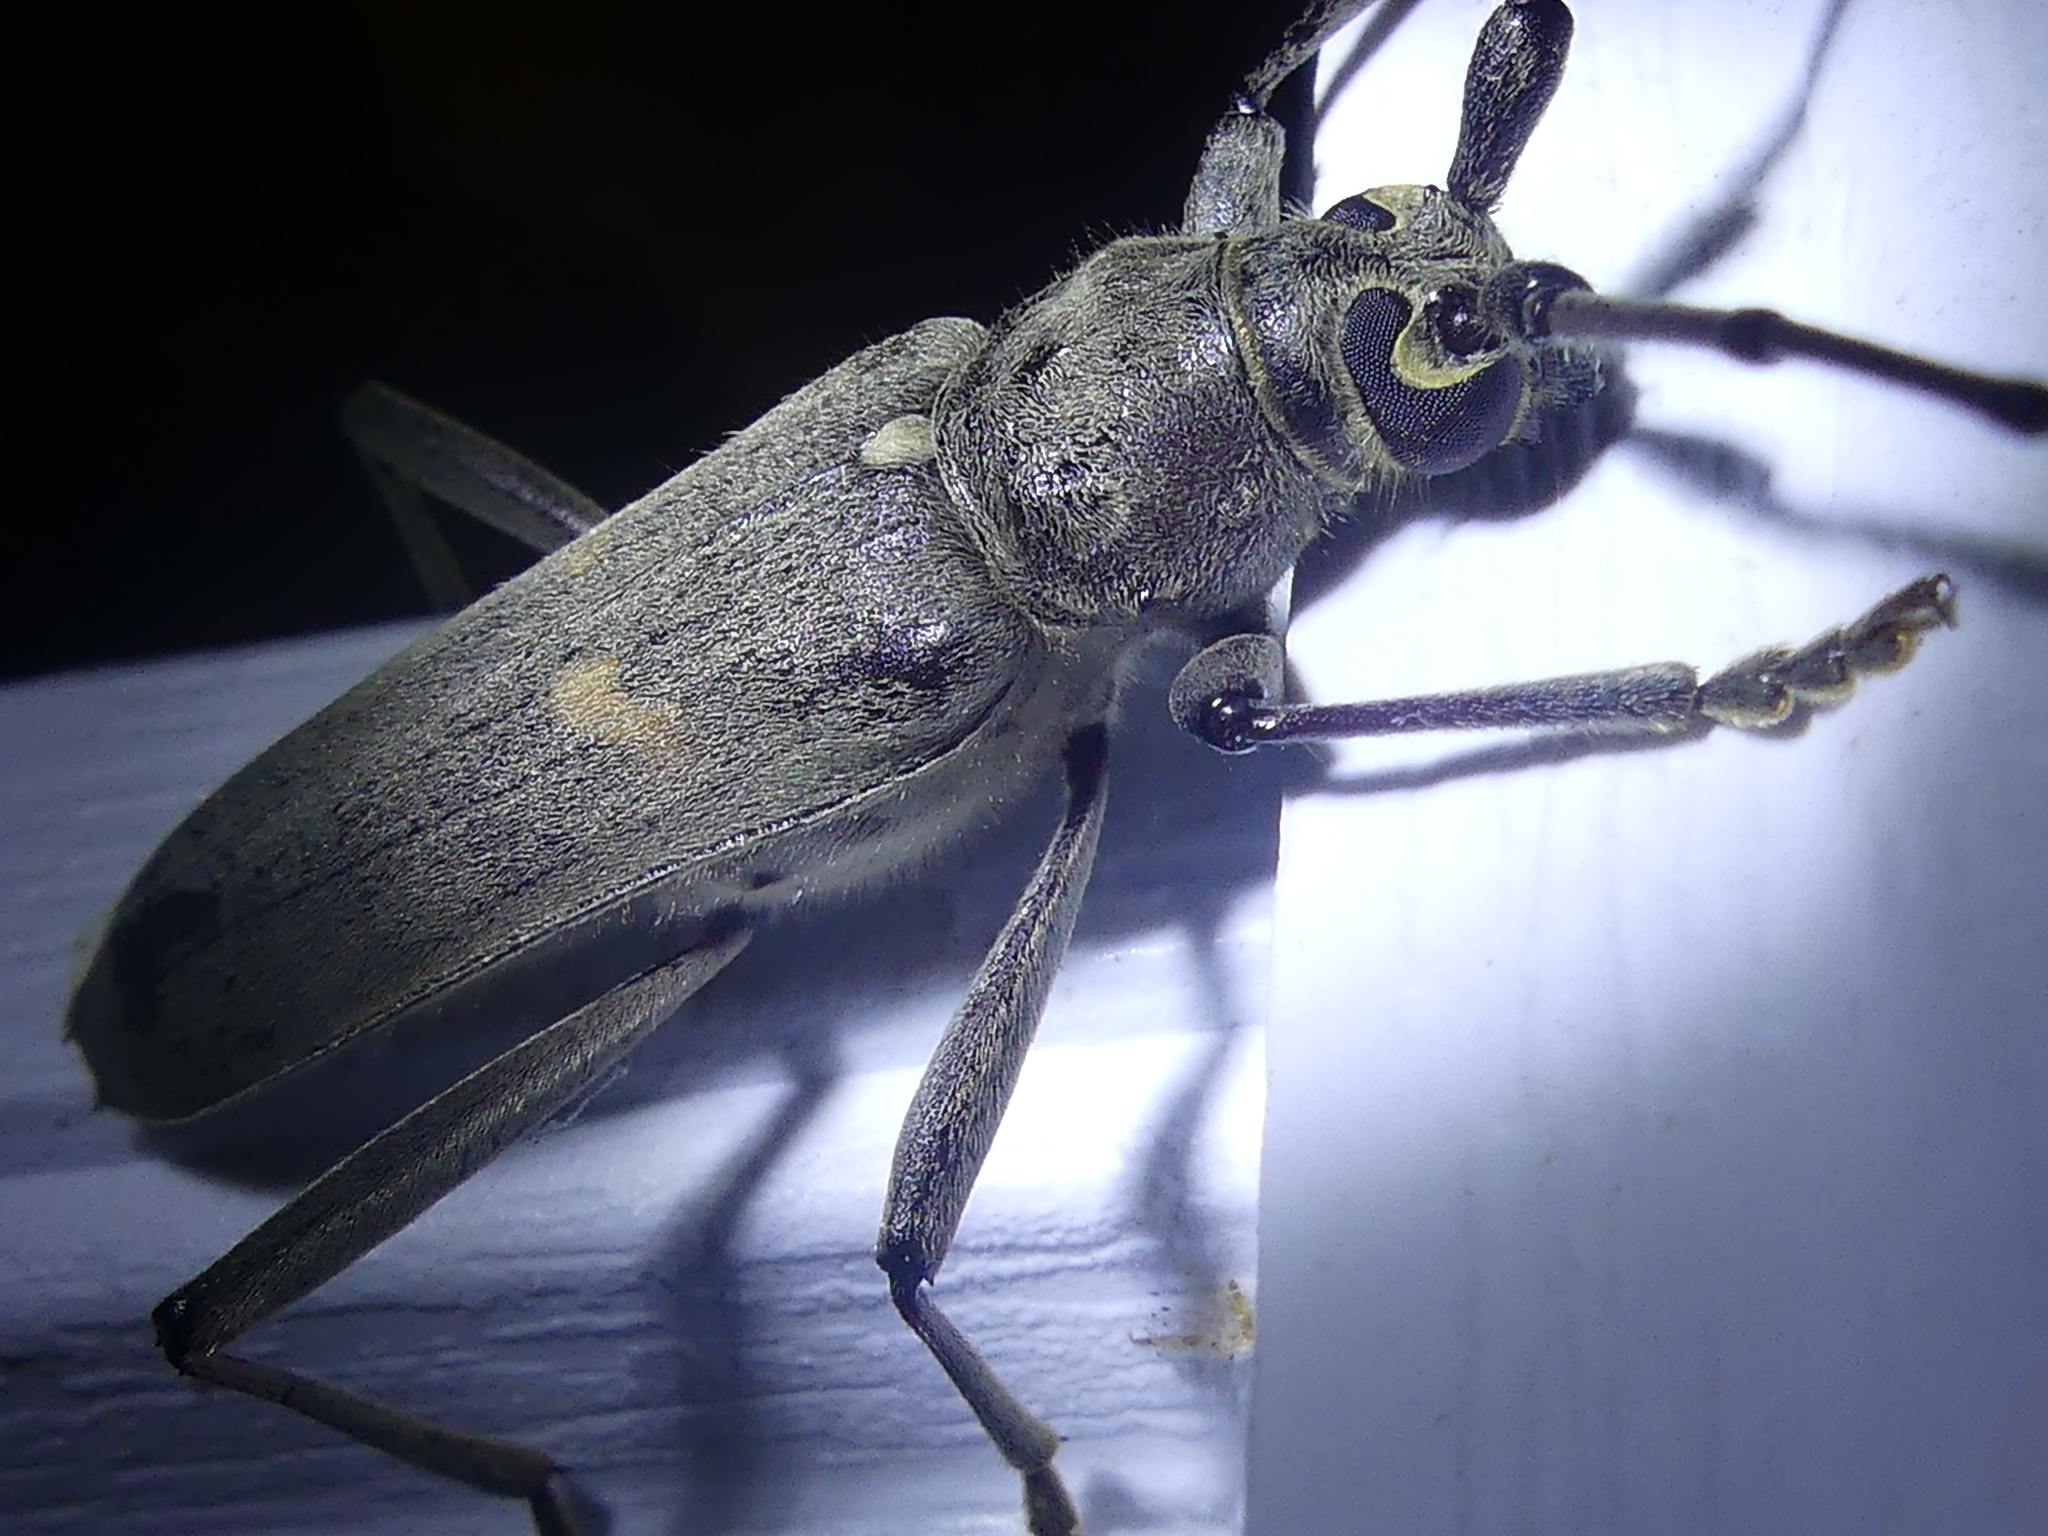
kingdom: Animalia
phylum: Arthropoda
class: Insecta
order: Coleoptera
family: Cerambycidae
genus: Knulliana
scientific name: Knulliana cincta
